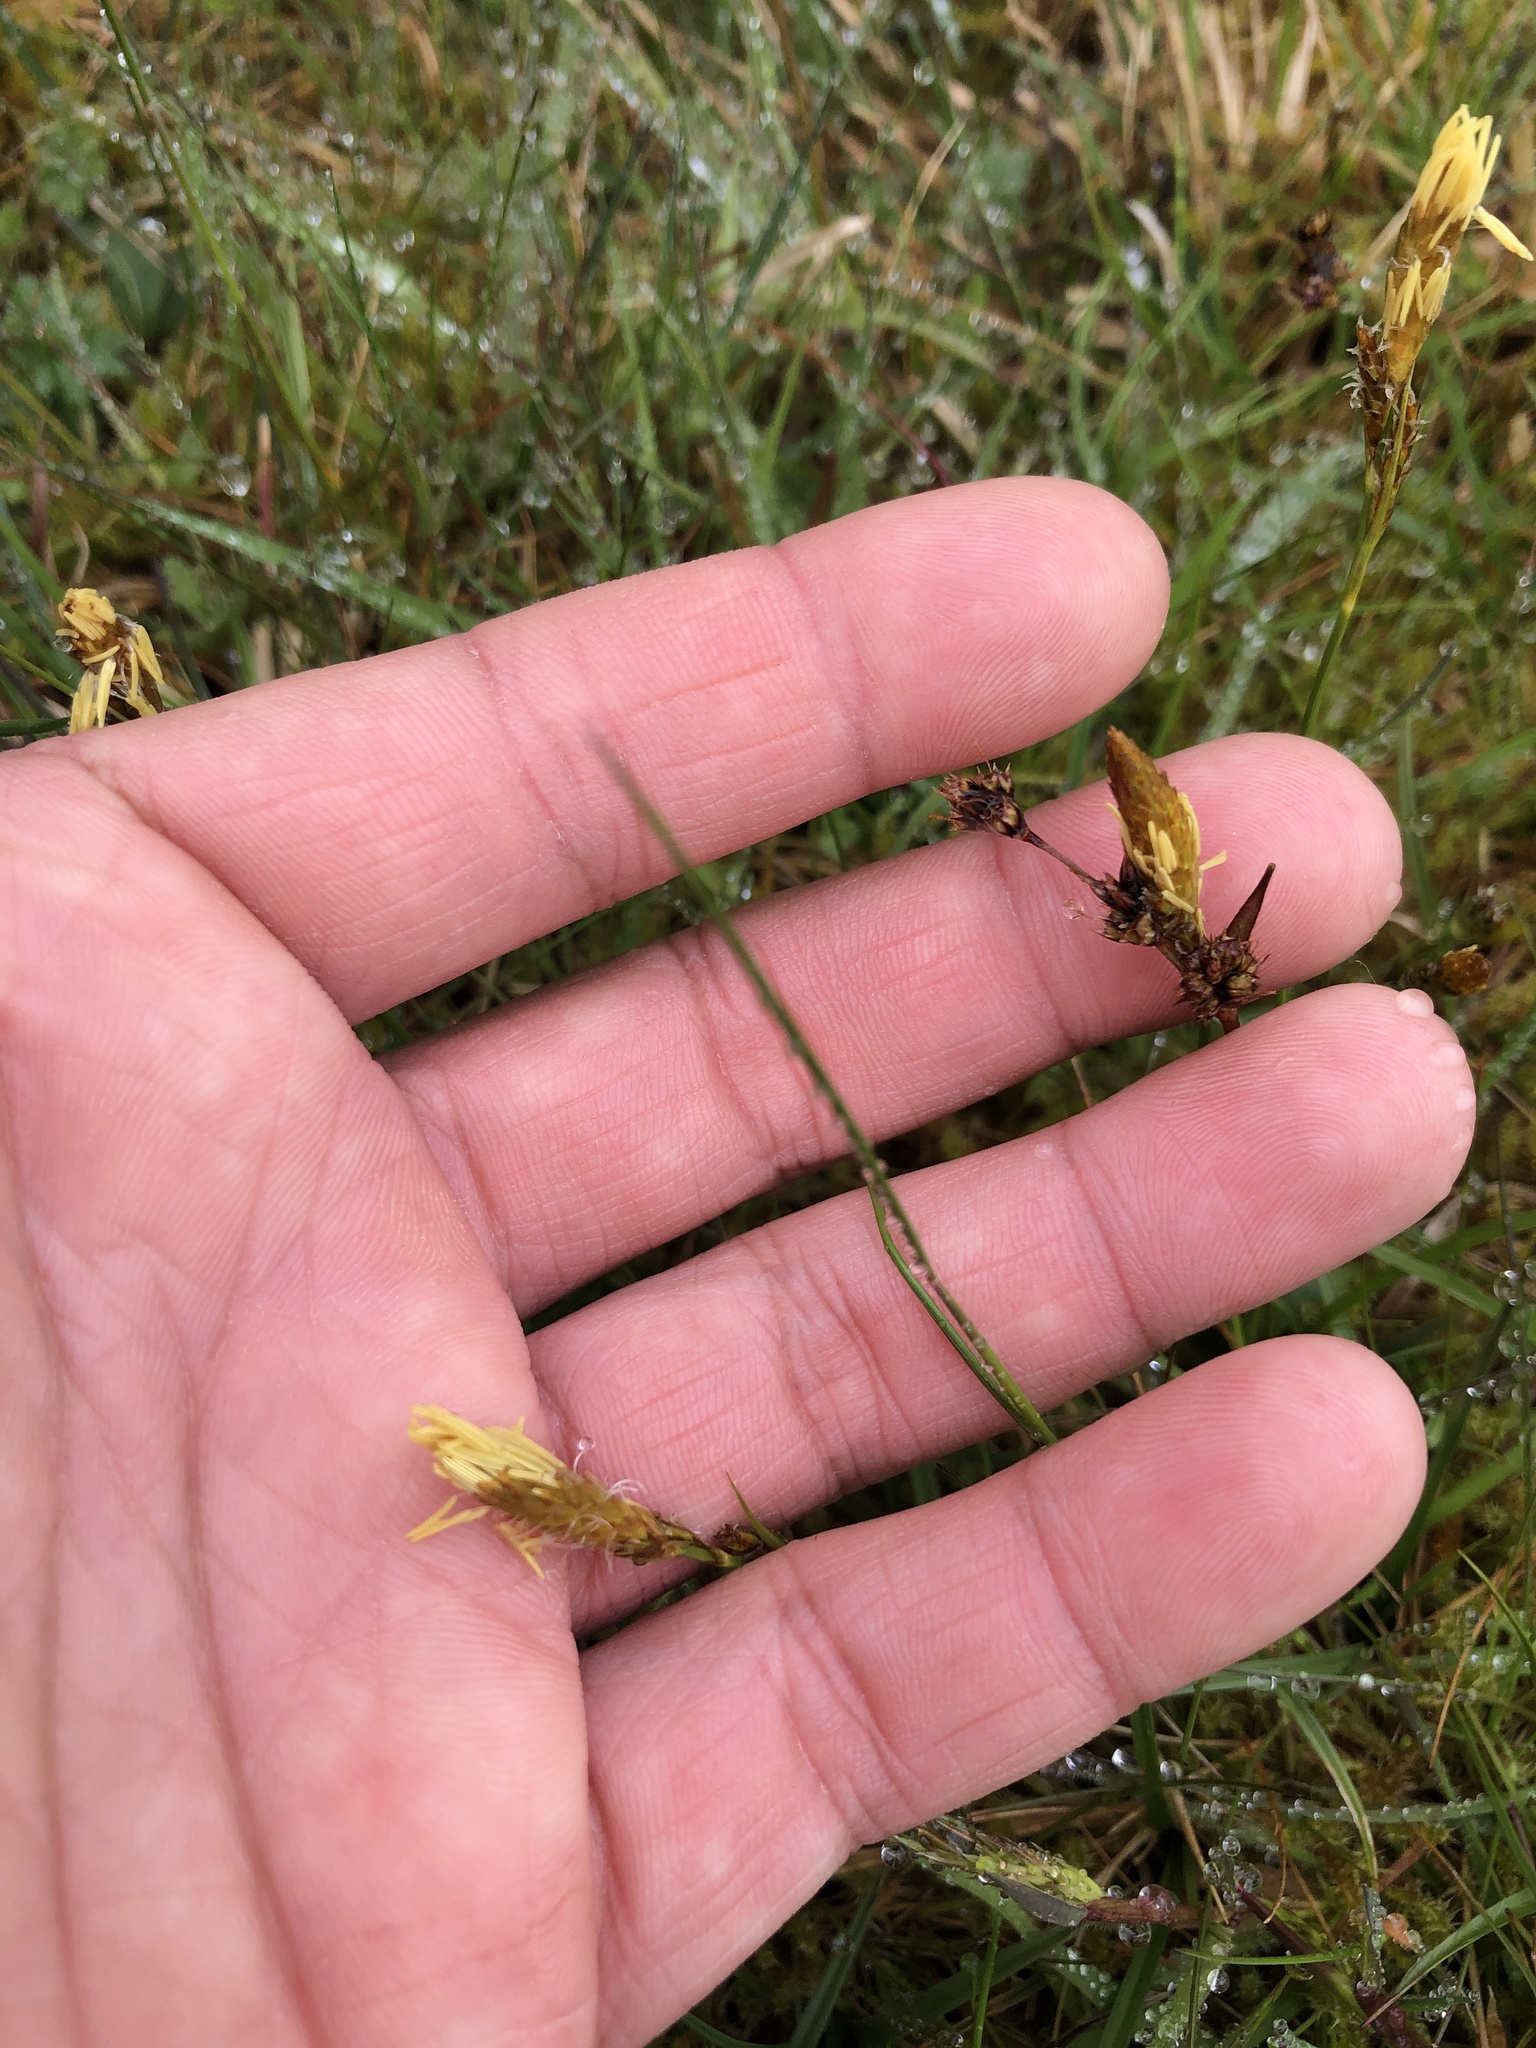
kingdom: Plantae
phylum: Tracheophyta
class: Liliopsida
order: Poales
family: Cyperaceae
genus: Carex
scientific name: Carex caryophyllea
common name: Spring sedge
